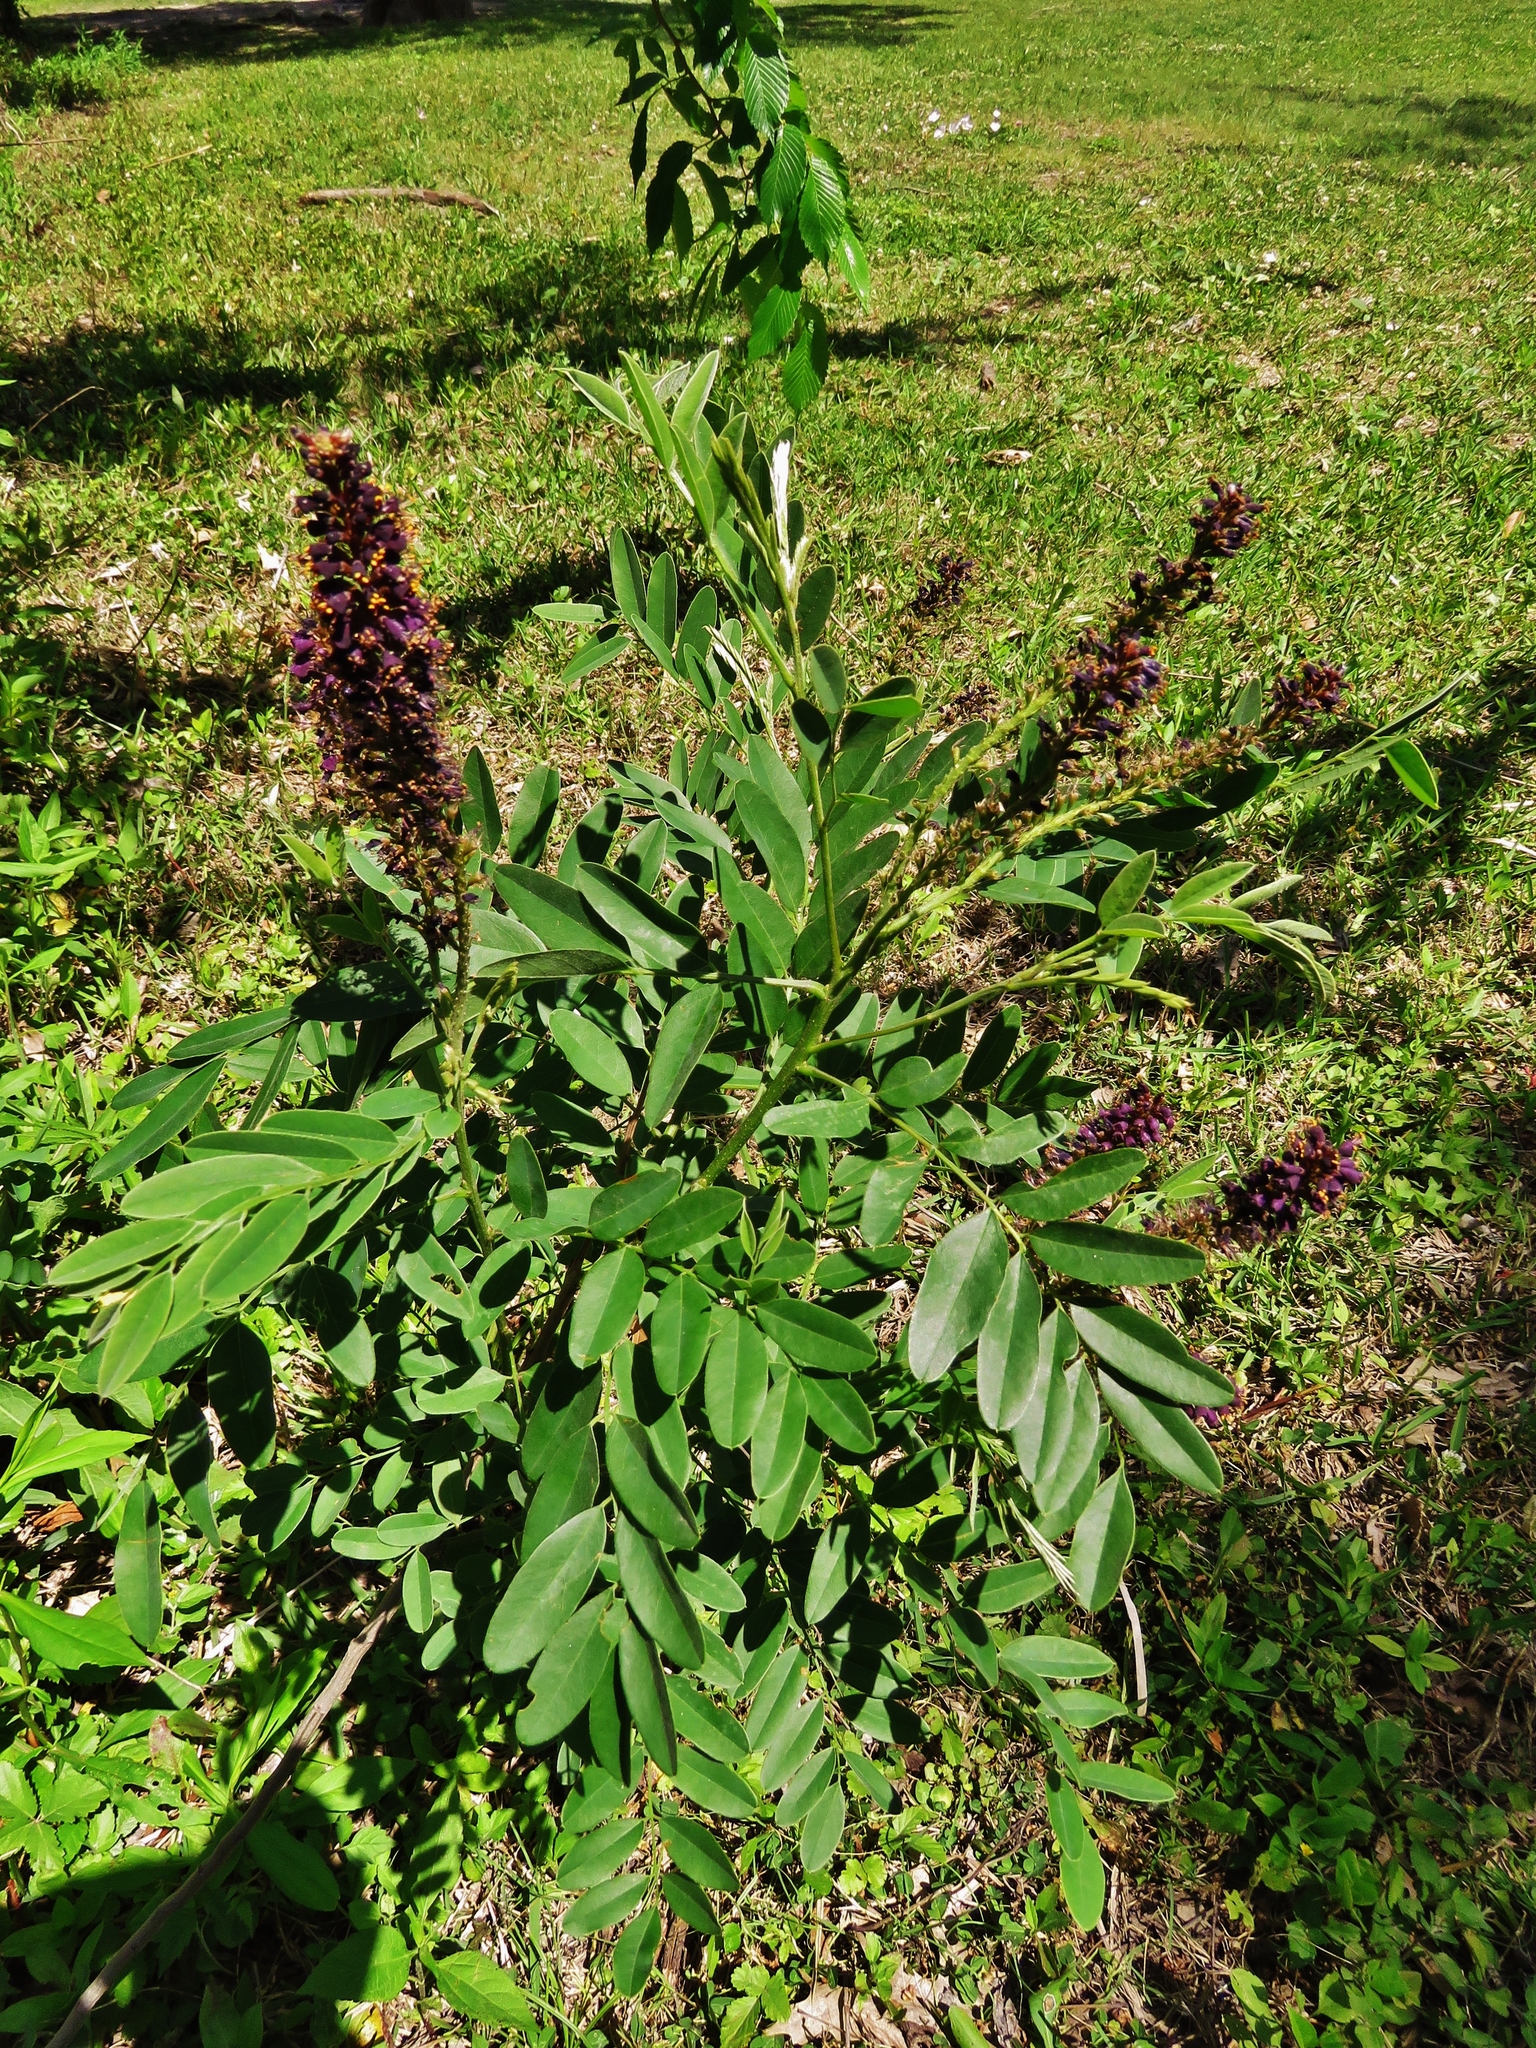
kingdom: Plantae
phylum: Tracheophyta
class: Magnoliopsida
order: Fabales
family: Fabaceae
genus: Amorpha
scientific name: Amorpha fruticosa
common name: False indigo
